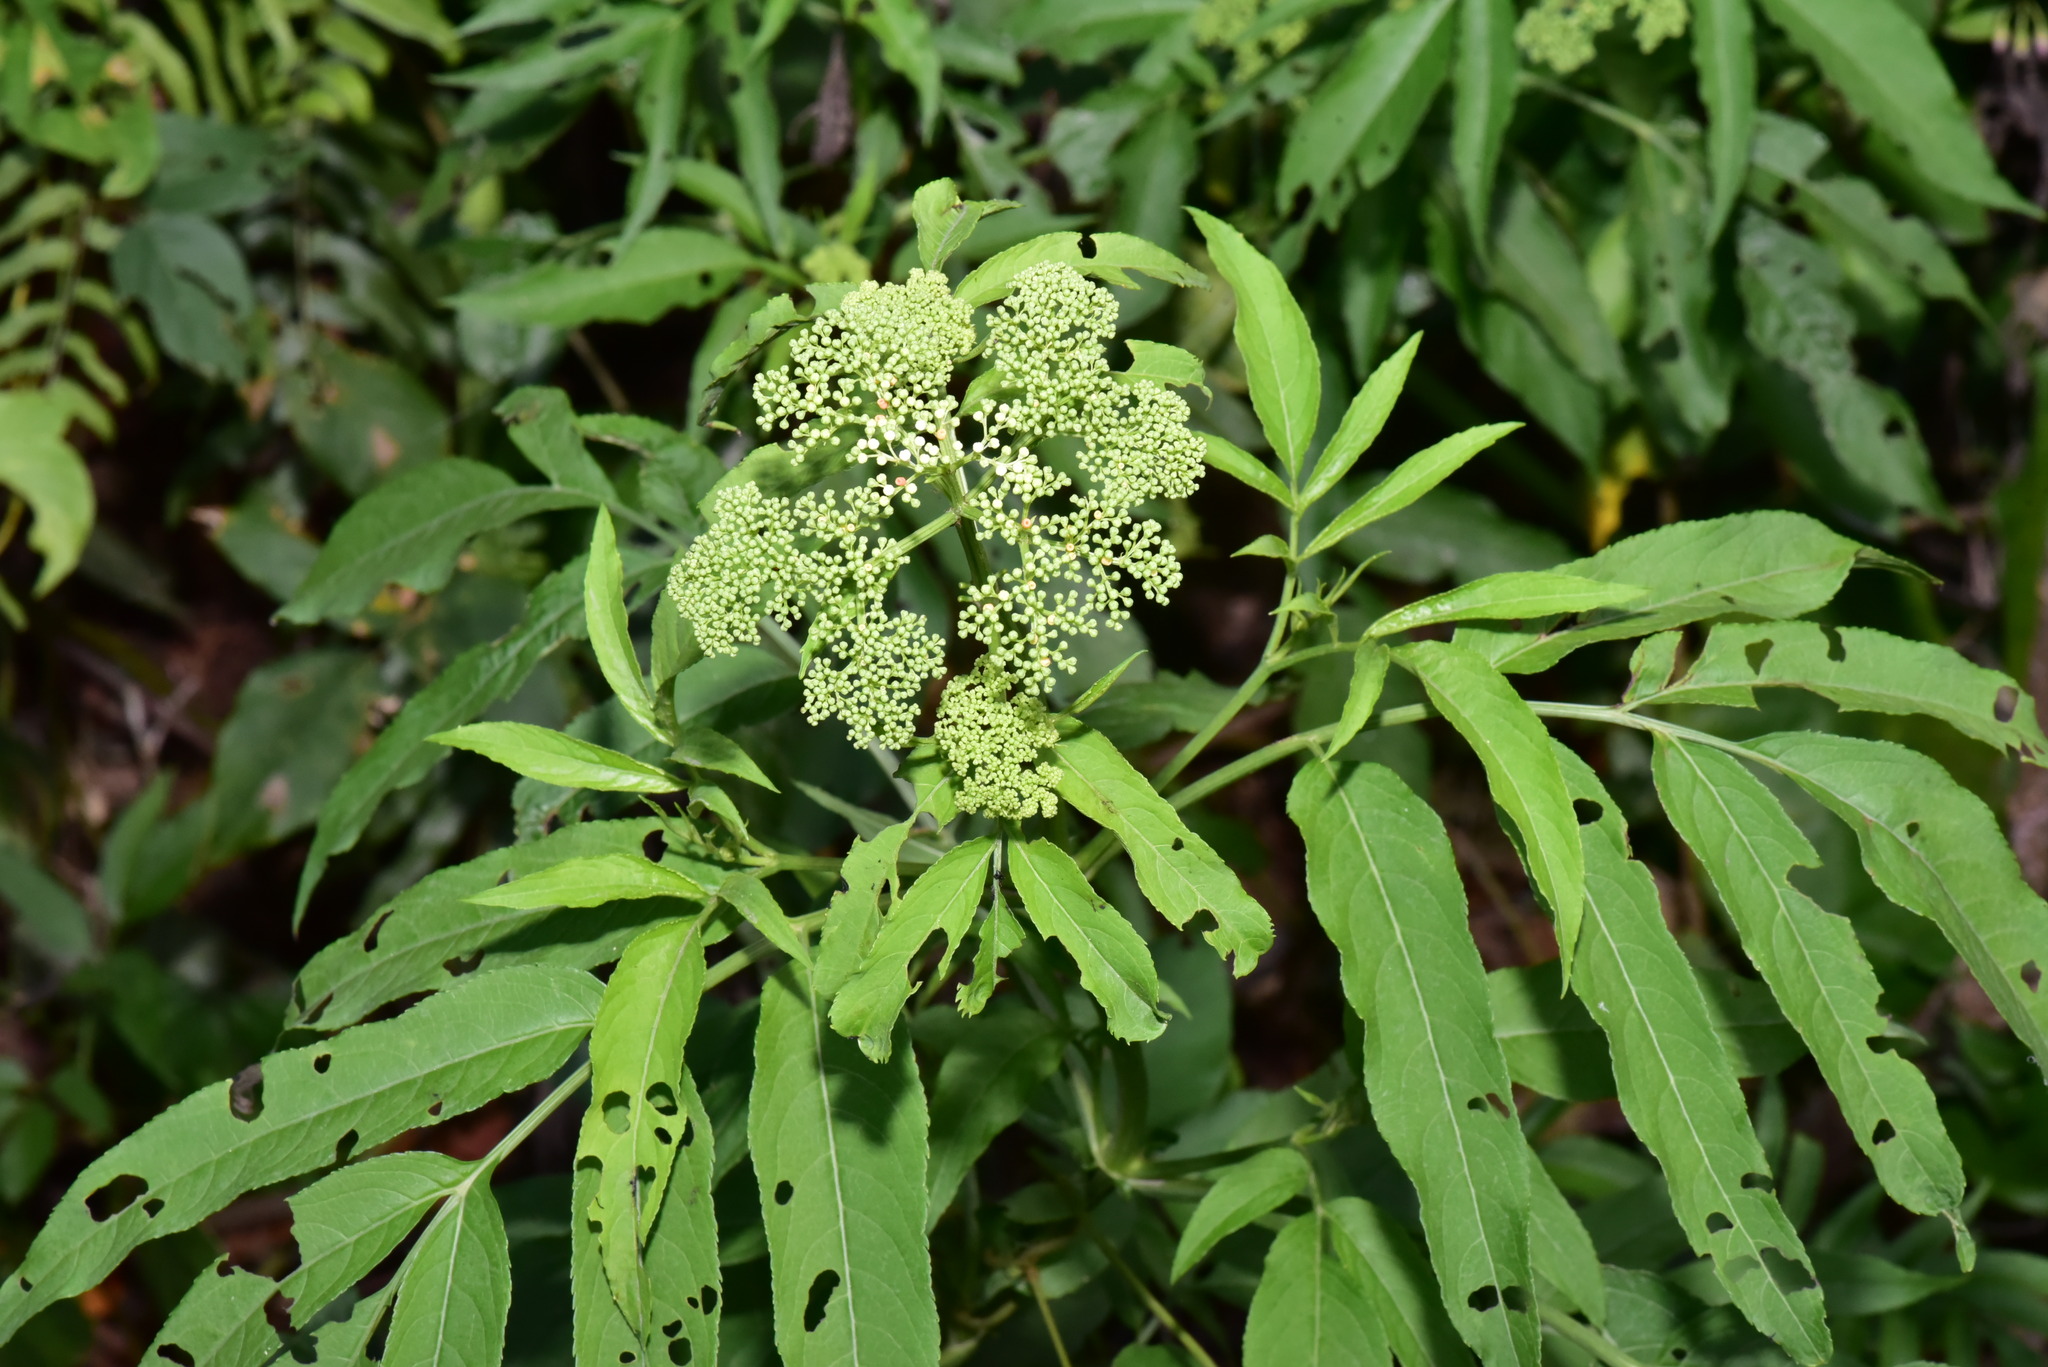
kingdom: Plantae
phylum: Tracheophyta
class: Magnoliopsida
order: Dipsacales
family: Viburnaceae
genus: Sambucus
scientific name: Sambucus javanica
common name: Chinese elder
